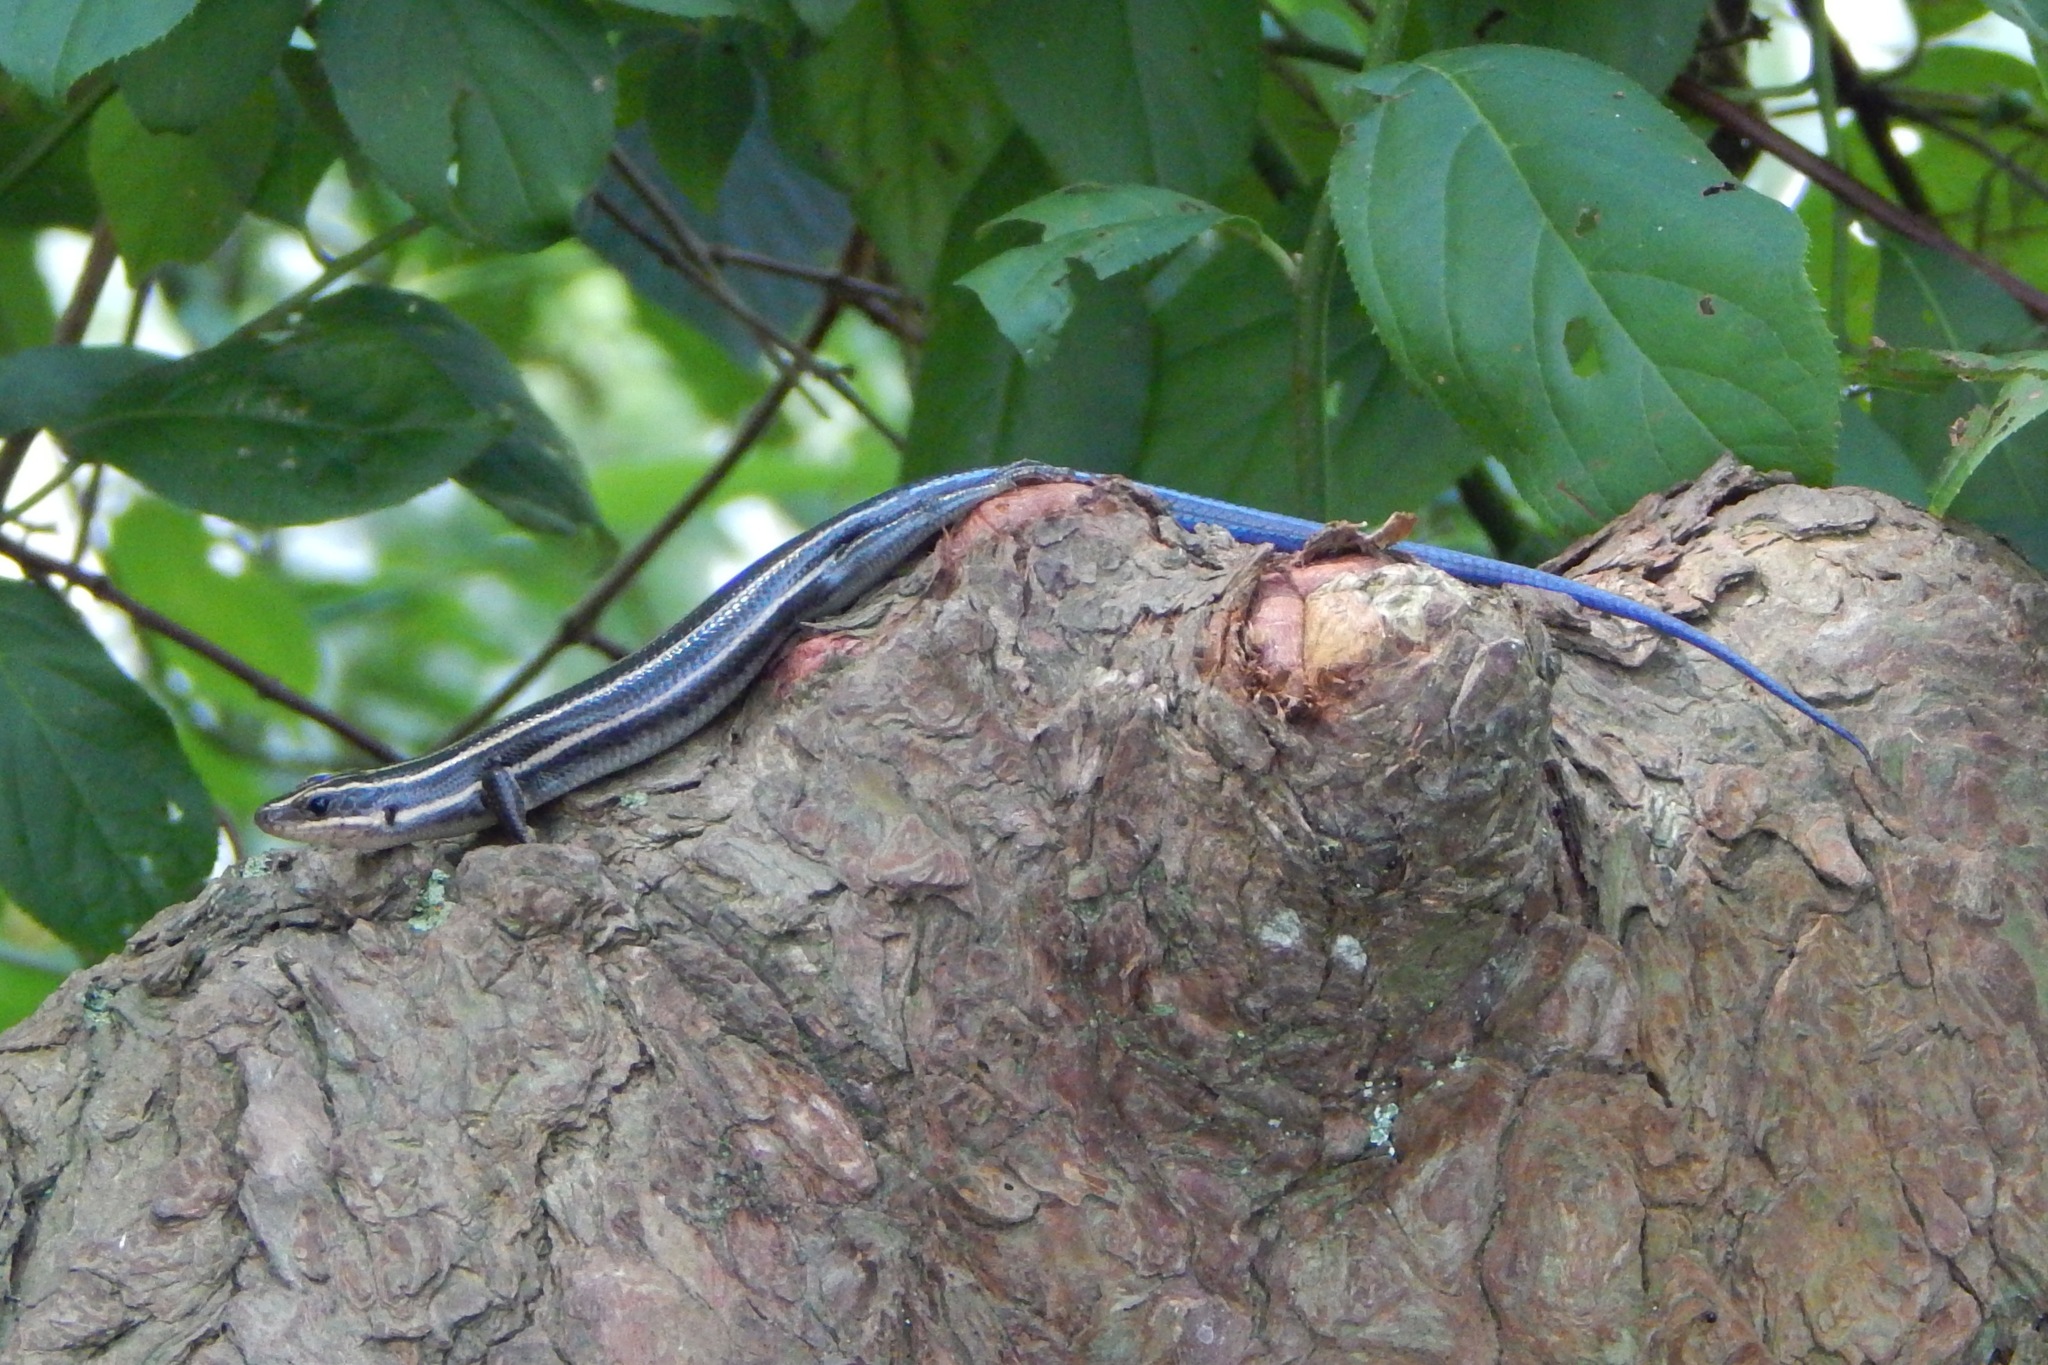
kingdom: Animalia
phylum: Chordata
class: Squamata
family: Scincidae
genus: Plestiodon
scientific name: Plestiodon fasciatus
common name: Five-lined skink
